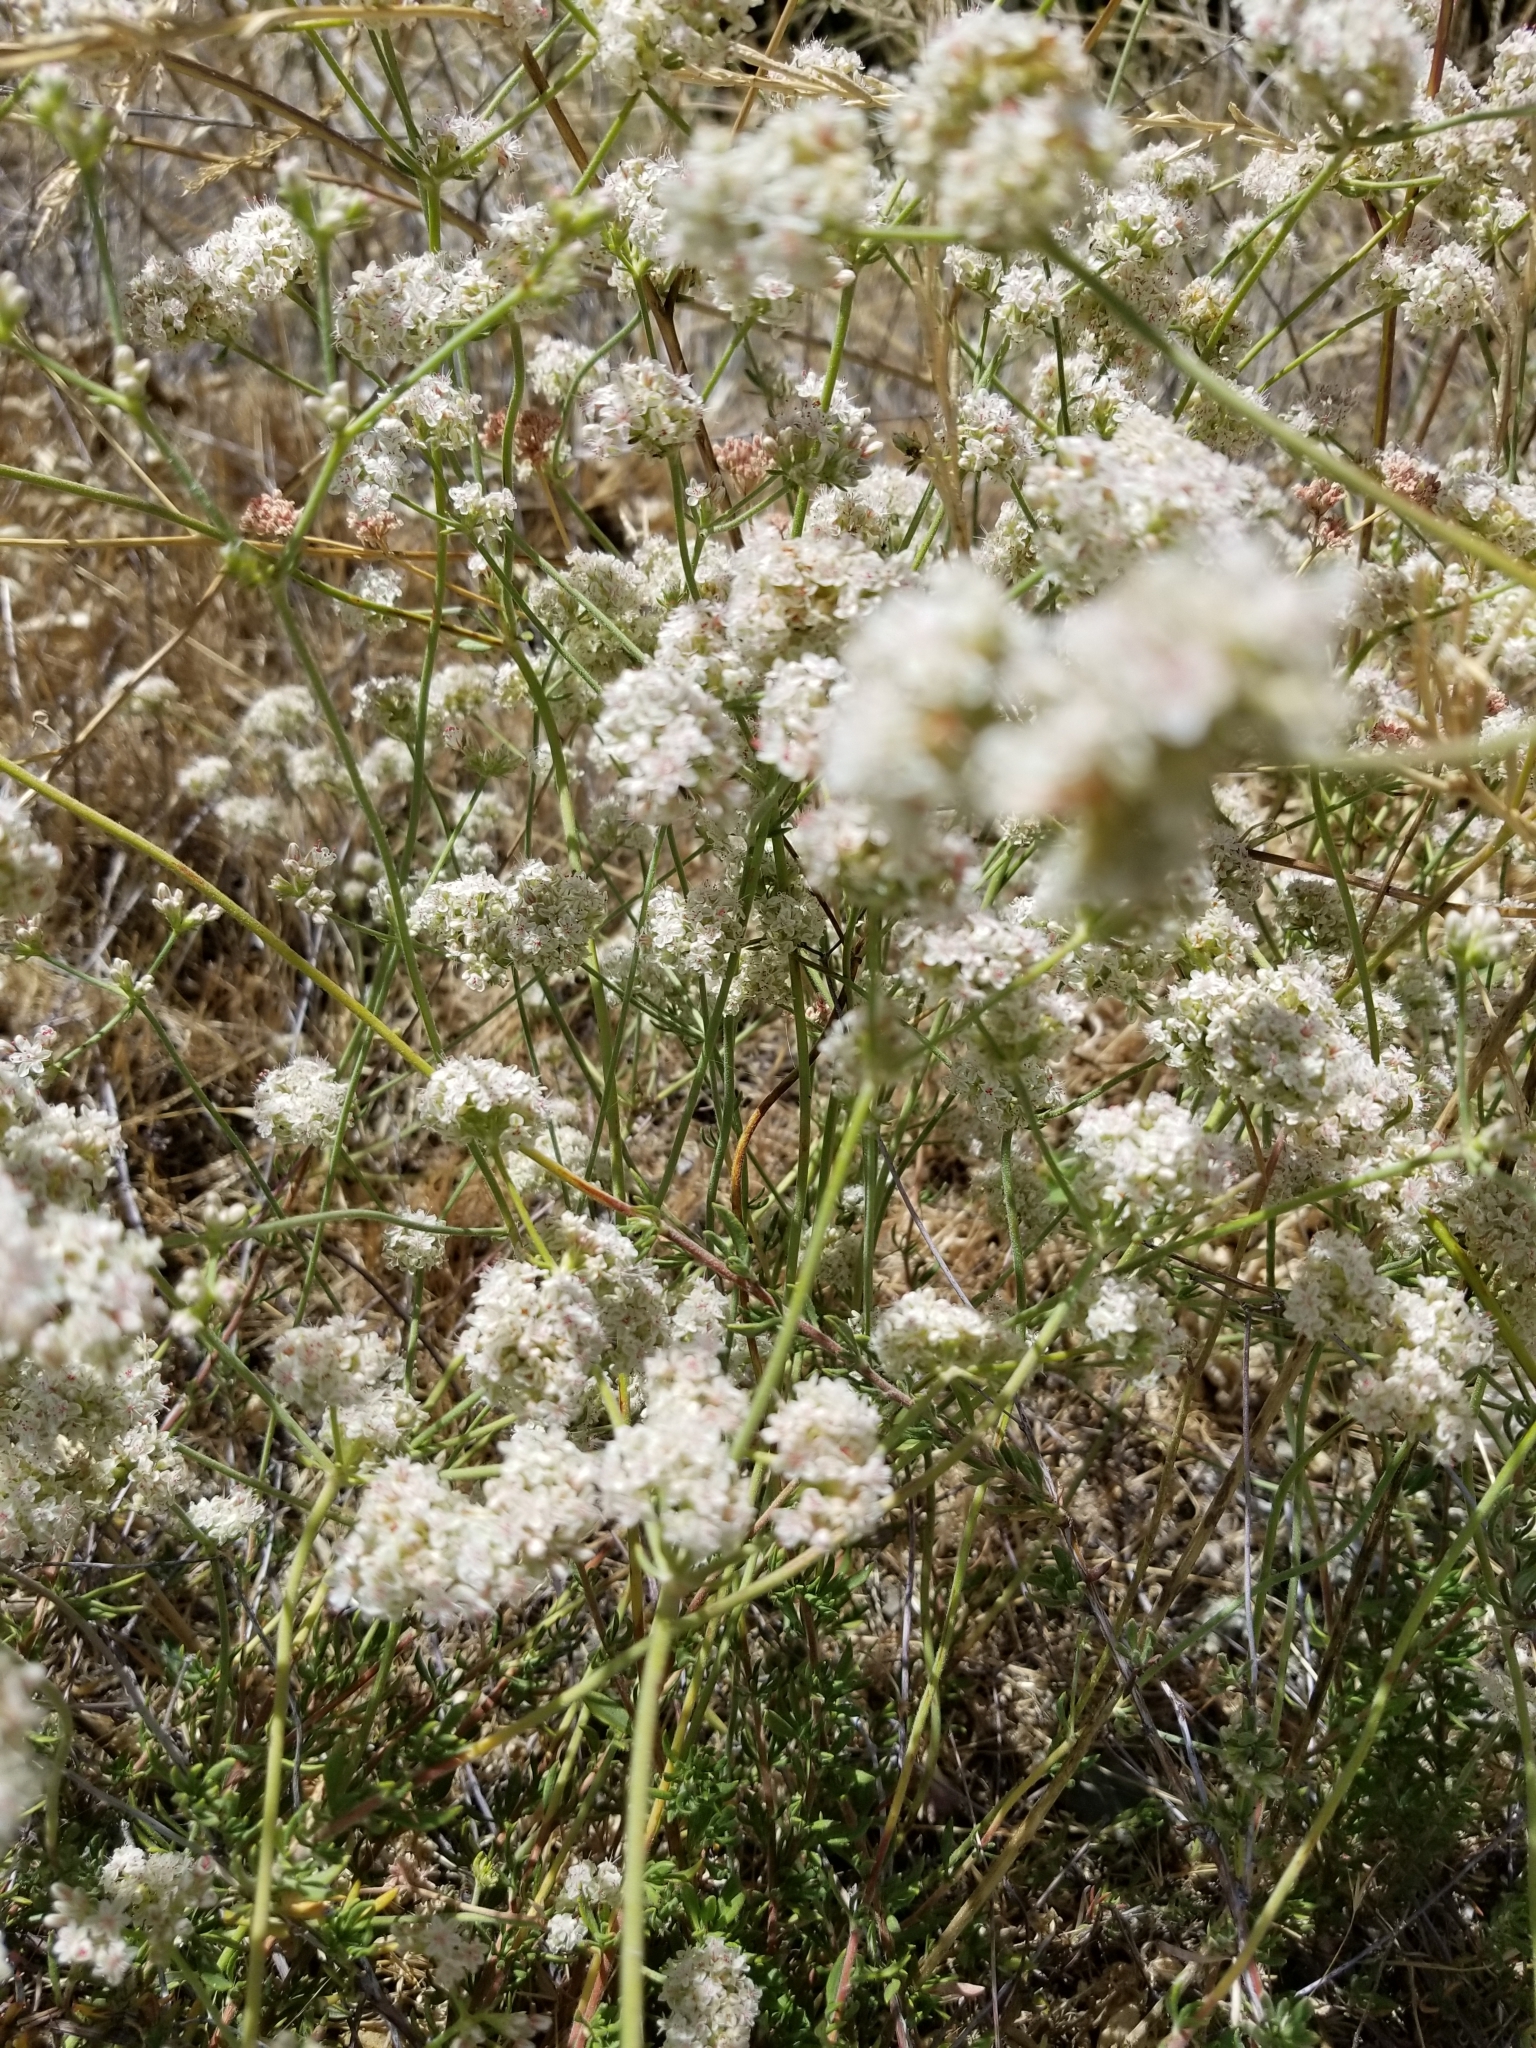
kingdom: Plantae
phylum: Tracheophyta
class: Magnoliopsida
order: Caryophyllales
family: Polygonaceae
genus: Eriogonum
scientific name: Eriogonum fasciculatum
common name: California wild buckwheat
